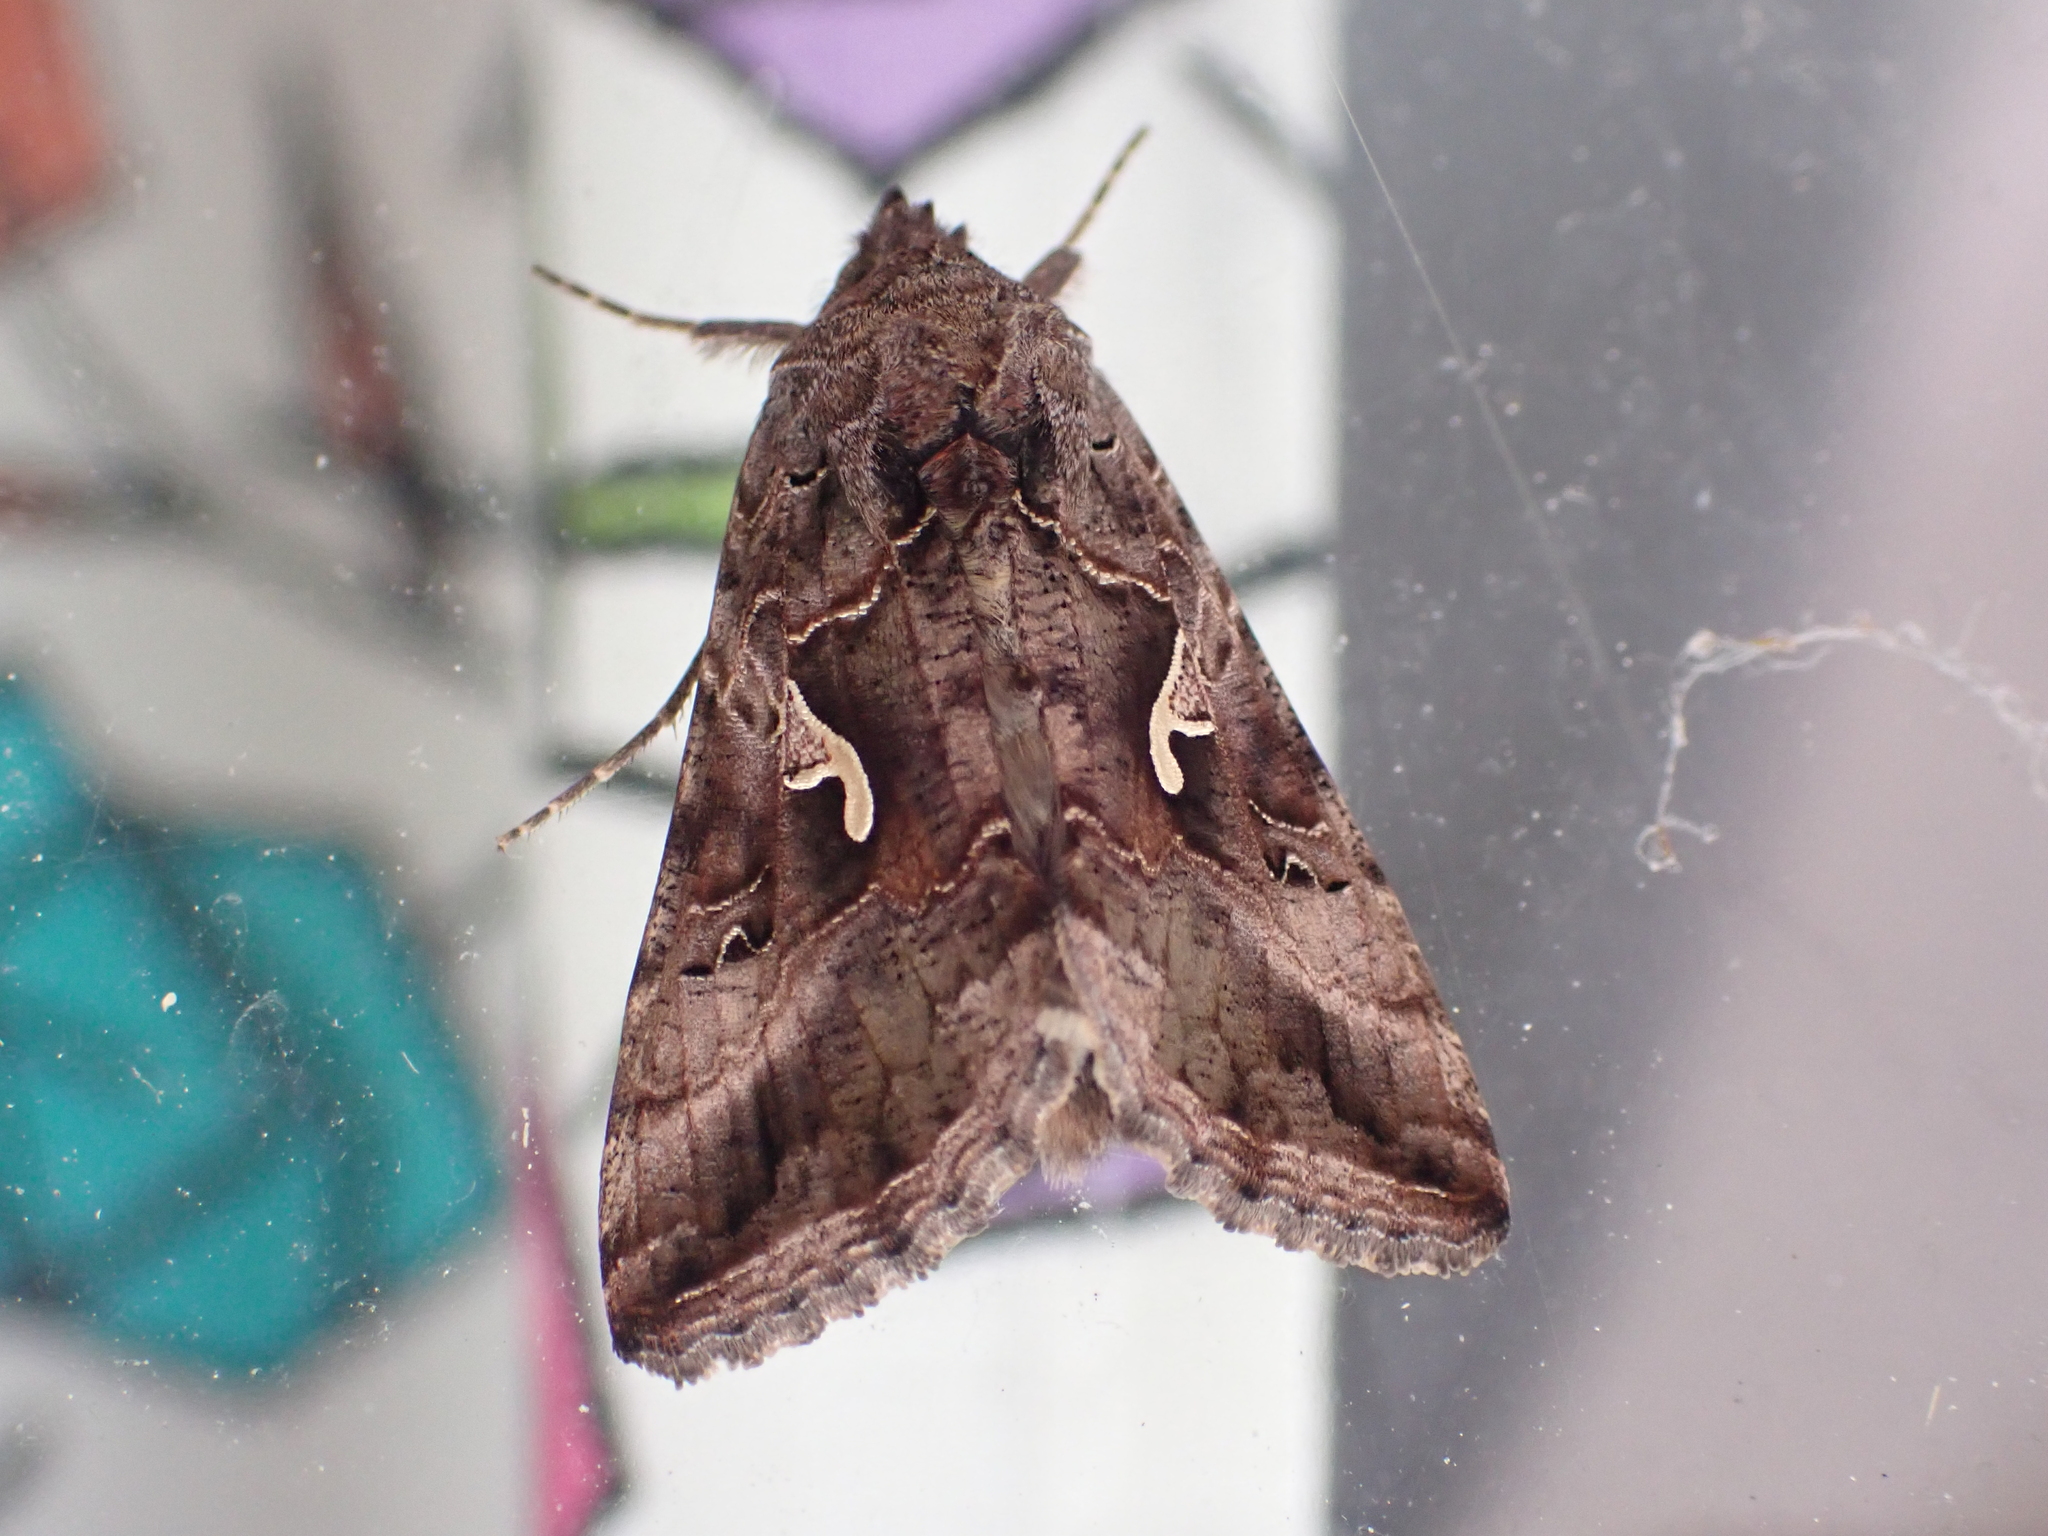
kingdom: Animalia
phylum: Arthropoda
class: Insecta
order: Lepidoptera
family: Noctuidae
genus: Autographa
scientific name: Autographa gamma
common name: Silver y
